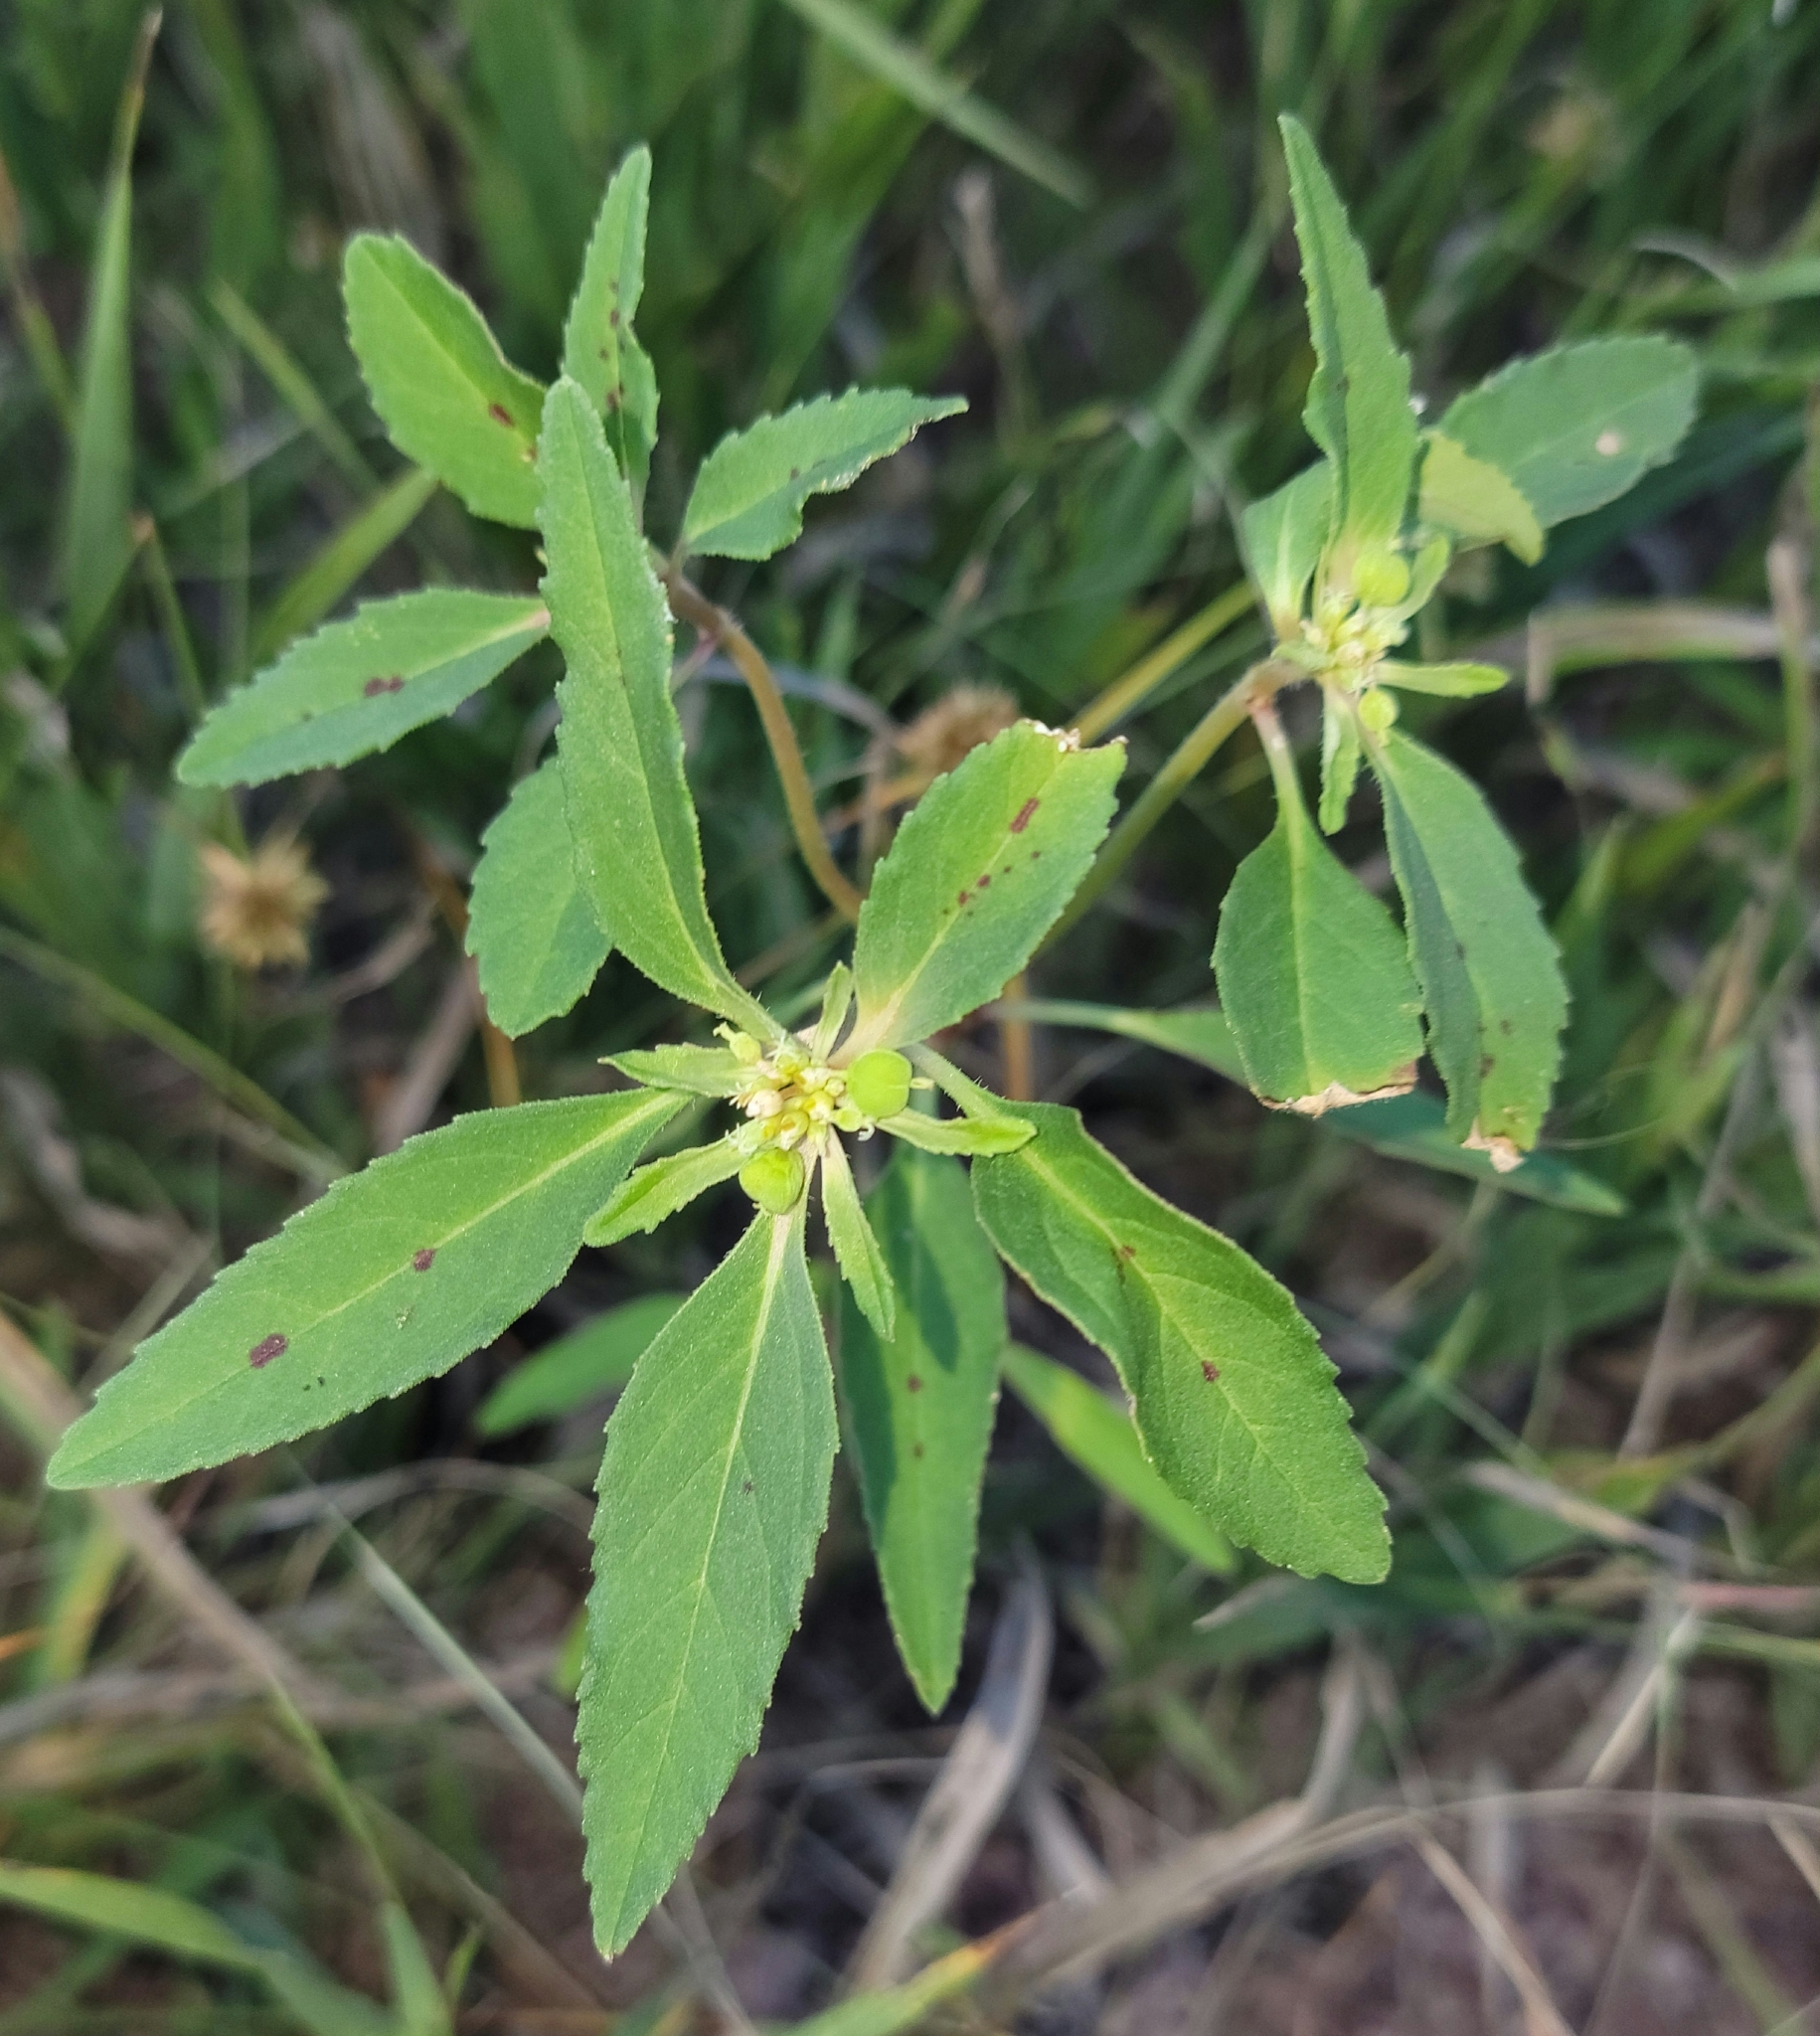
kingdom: Plantae
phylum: Tracheophyta
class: Magnoliopsida
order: Malpighiales
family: Euphorbiaceae
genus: Euphorbia
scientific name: Euphorbia davidii
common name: David's spurge
